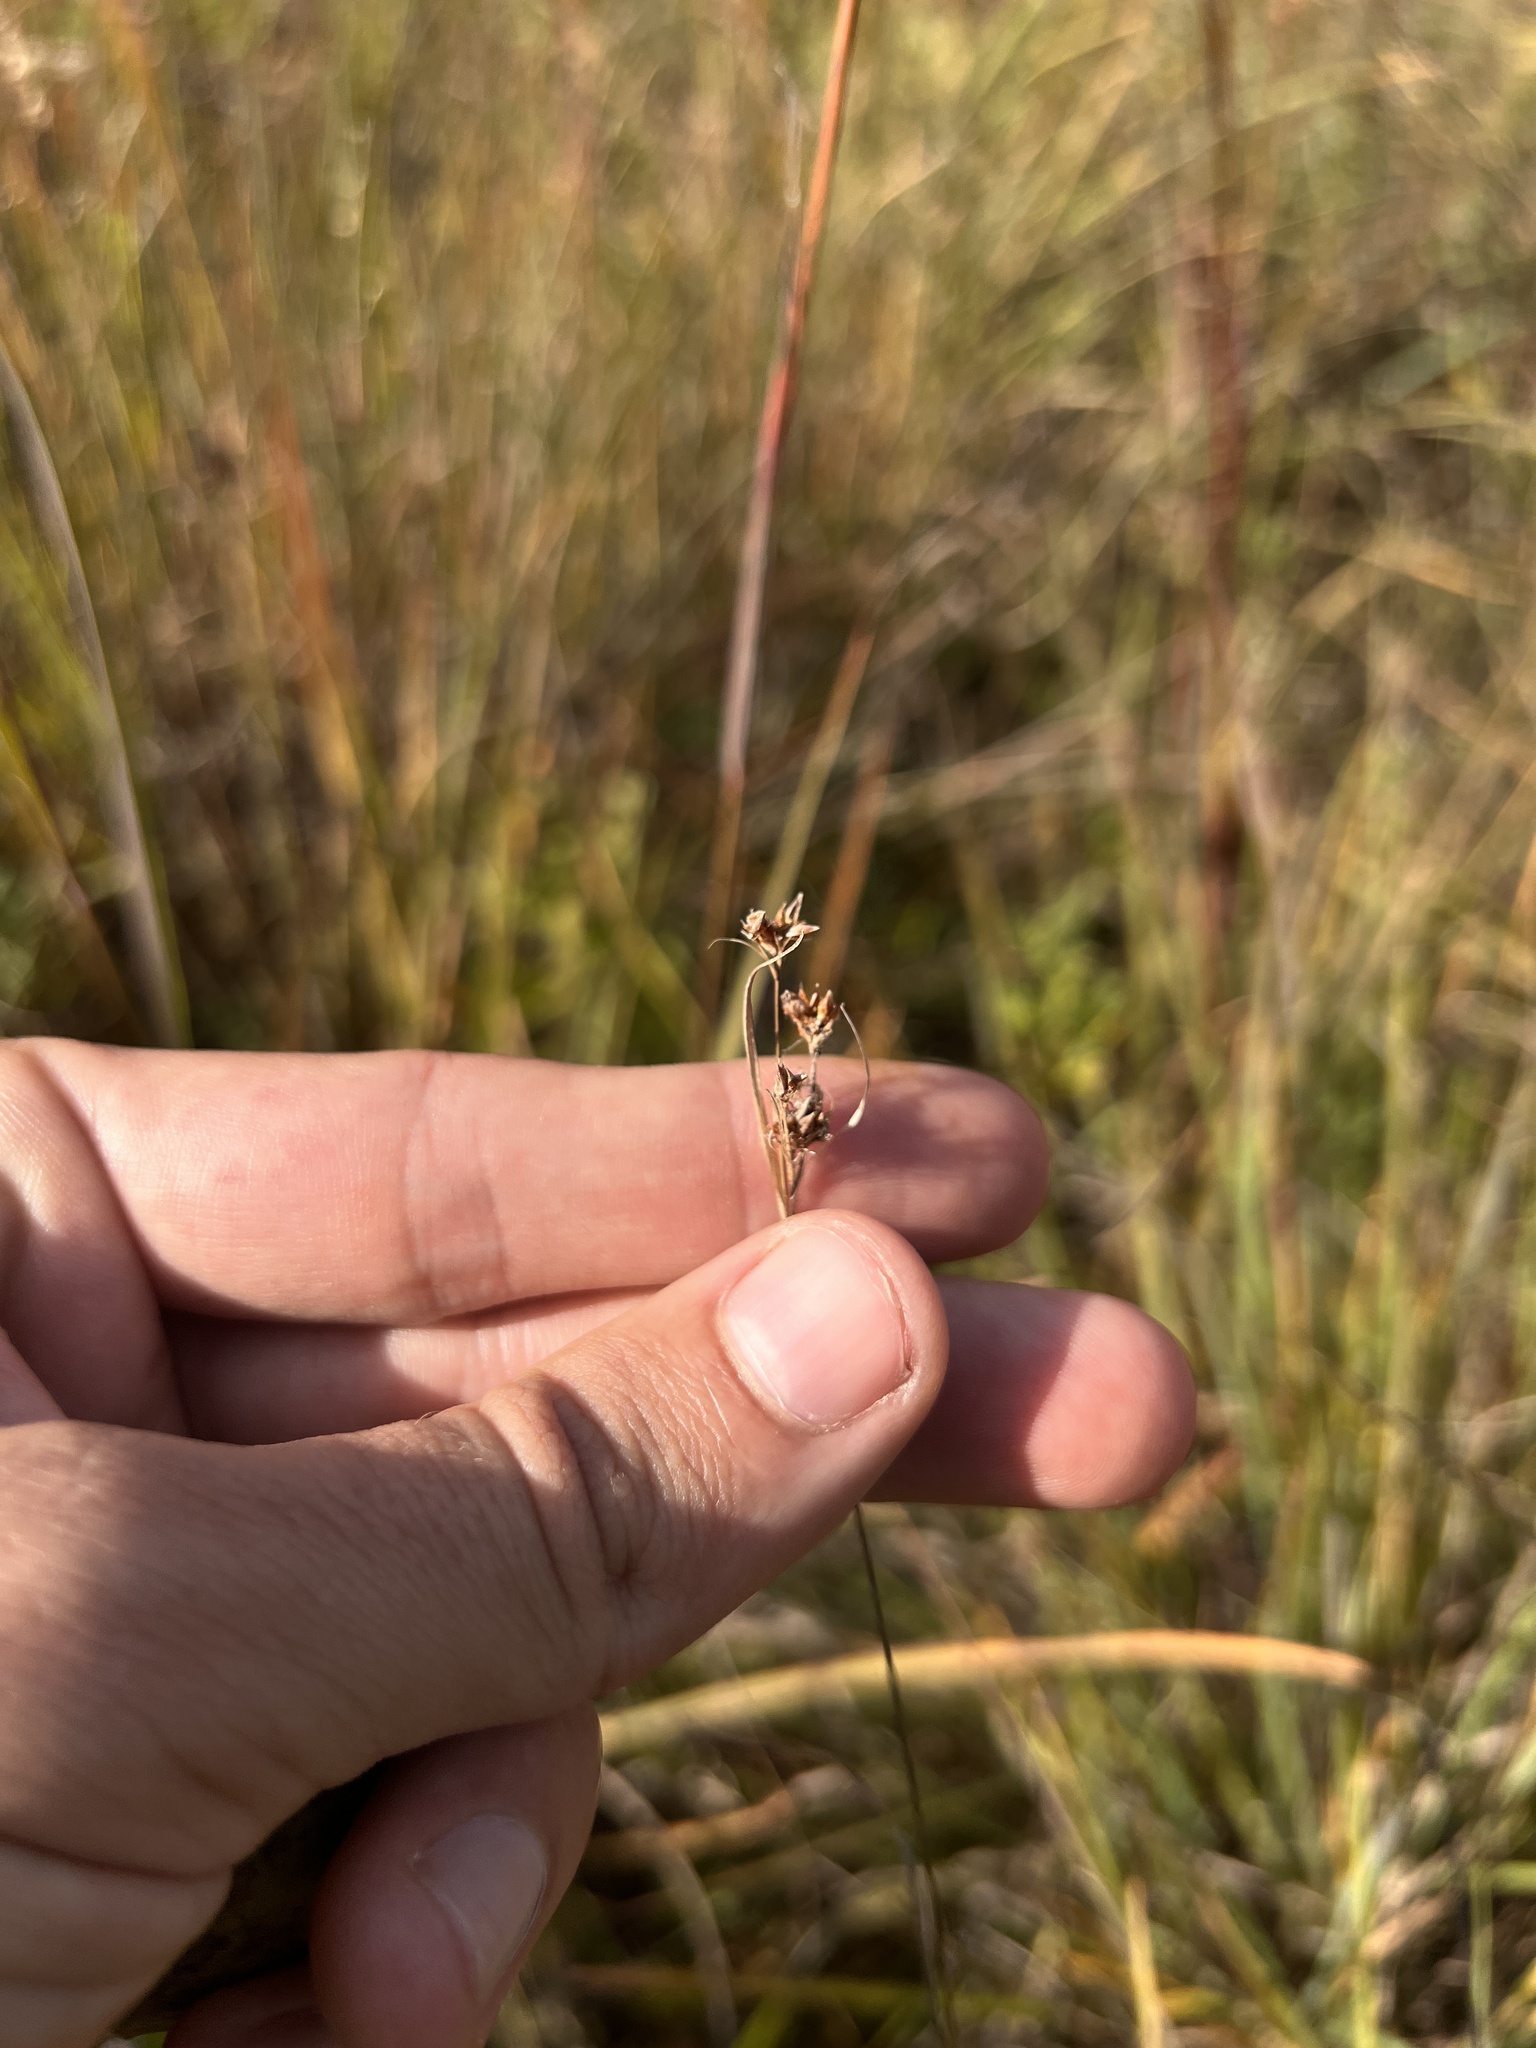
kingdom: Plantae
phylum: Tracheophyta
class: Liliopsida
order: Poales
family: Cyperaceae
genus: Rhynchospora
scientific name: Rhynchospora globularis
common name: Globe beaksedge
